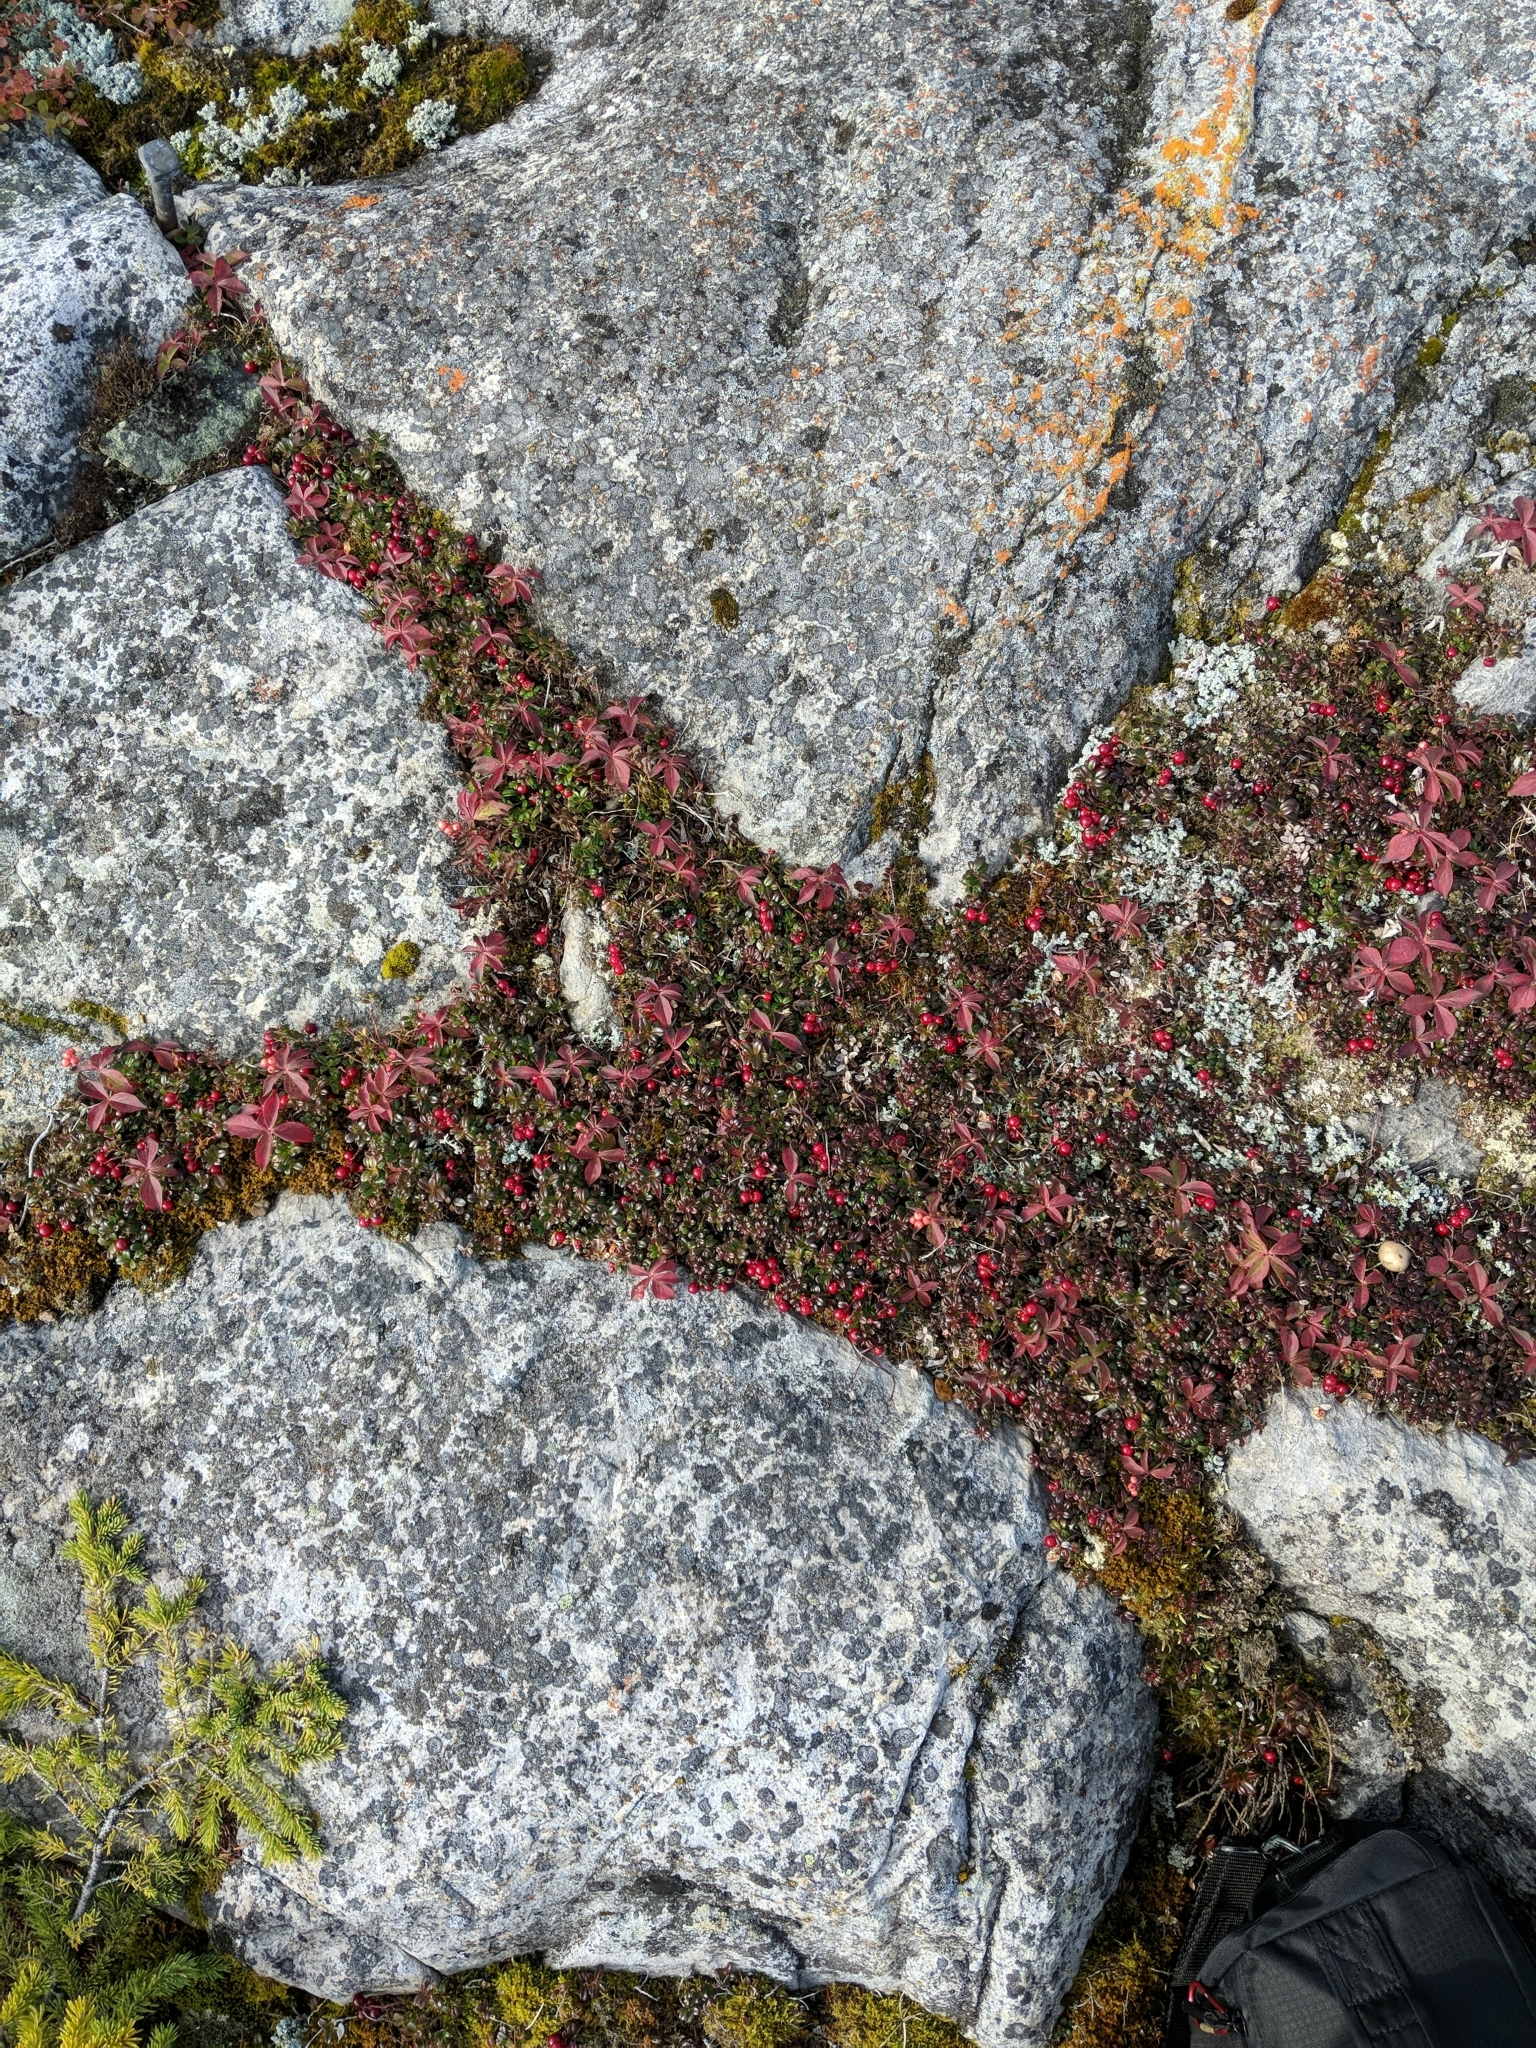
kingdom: Plantae
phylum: Tracheophyta
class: Magnoliopsida
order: Ericales
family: Ericaceae
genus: Vaccinium
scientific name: Vaccinium vitis-idaea
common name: Cowberry
